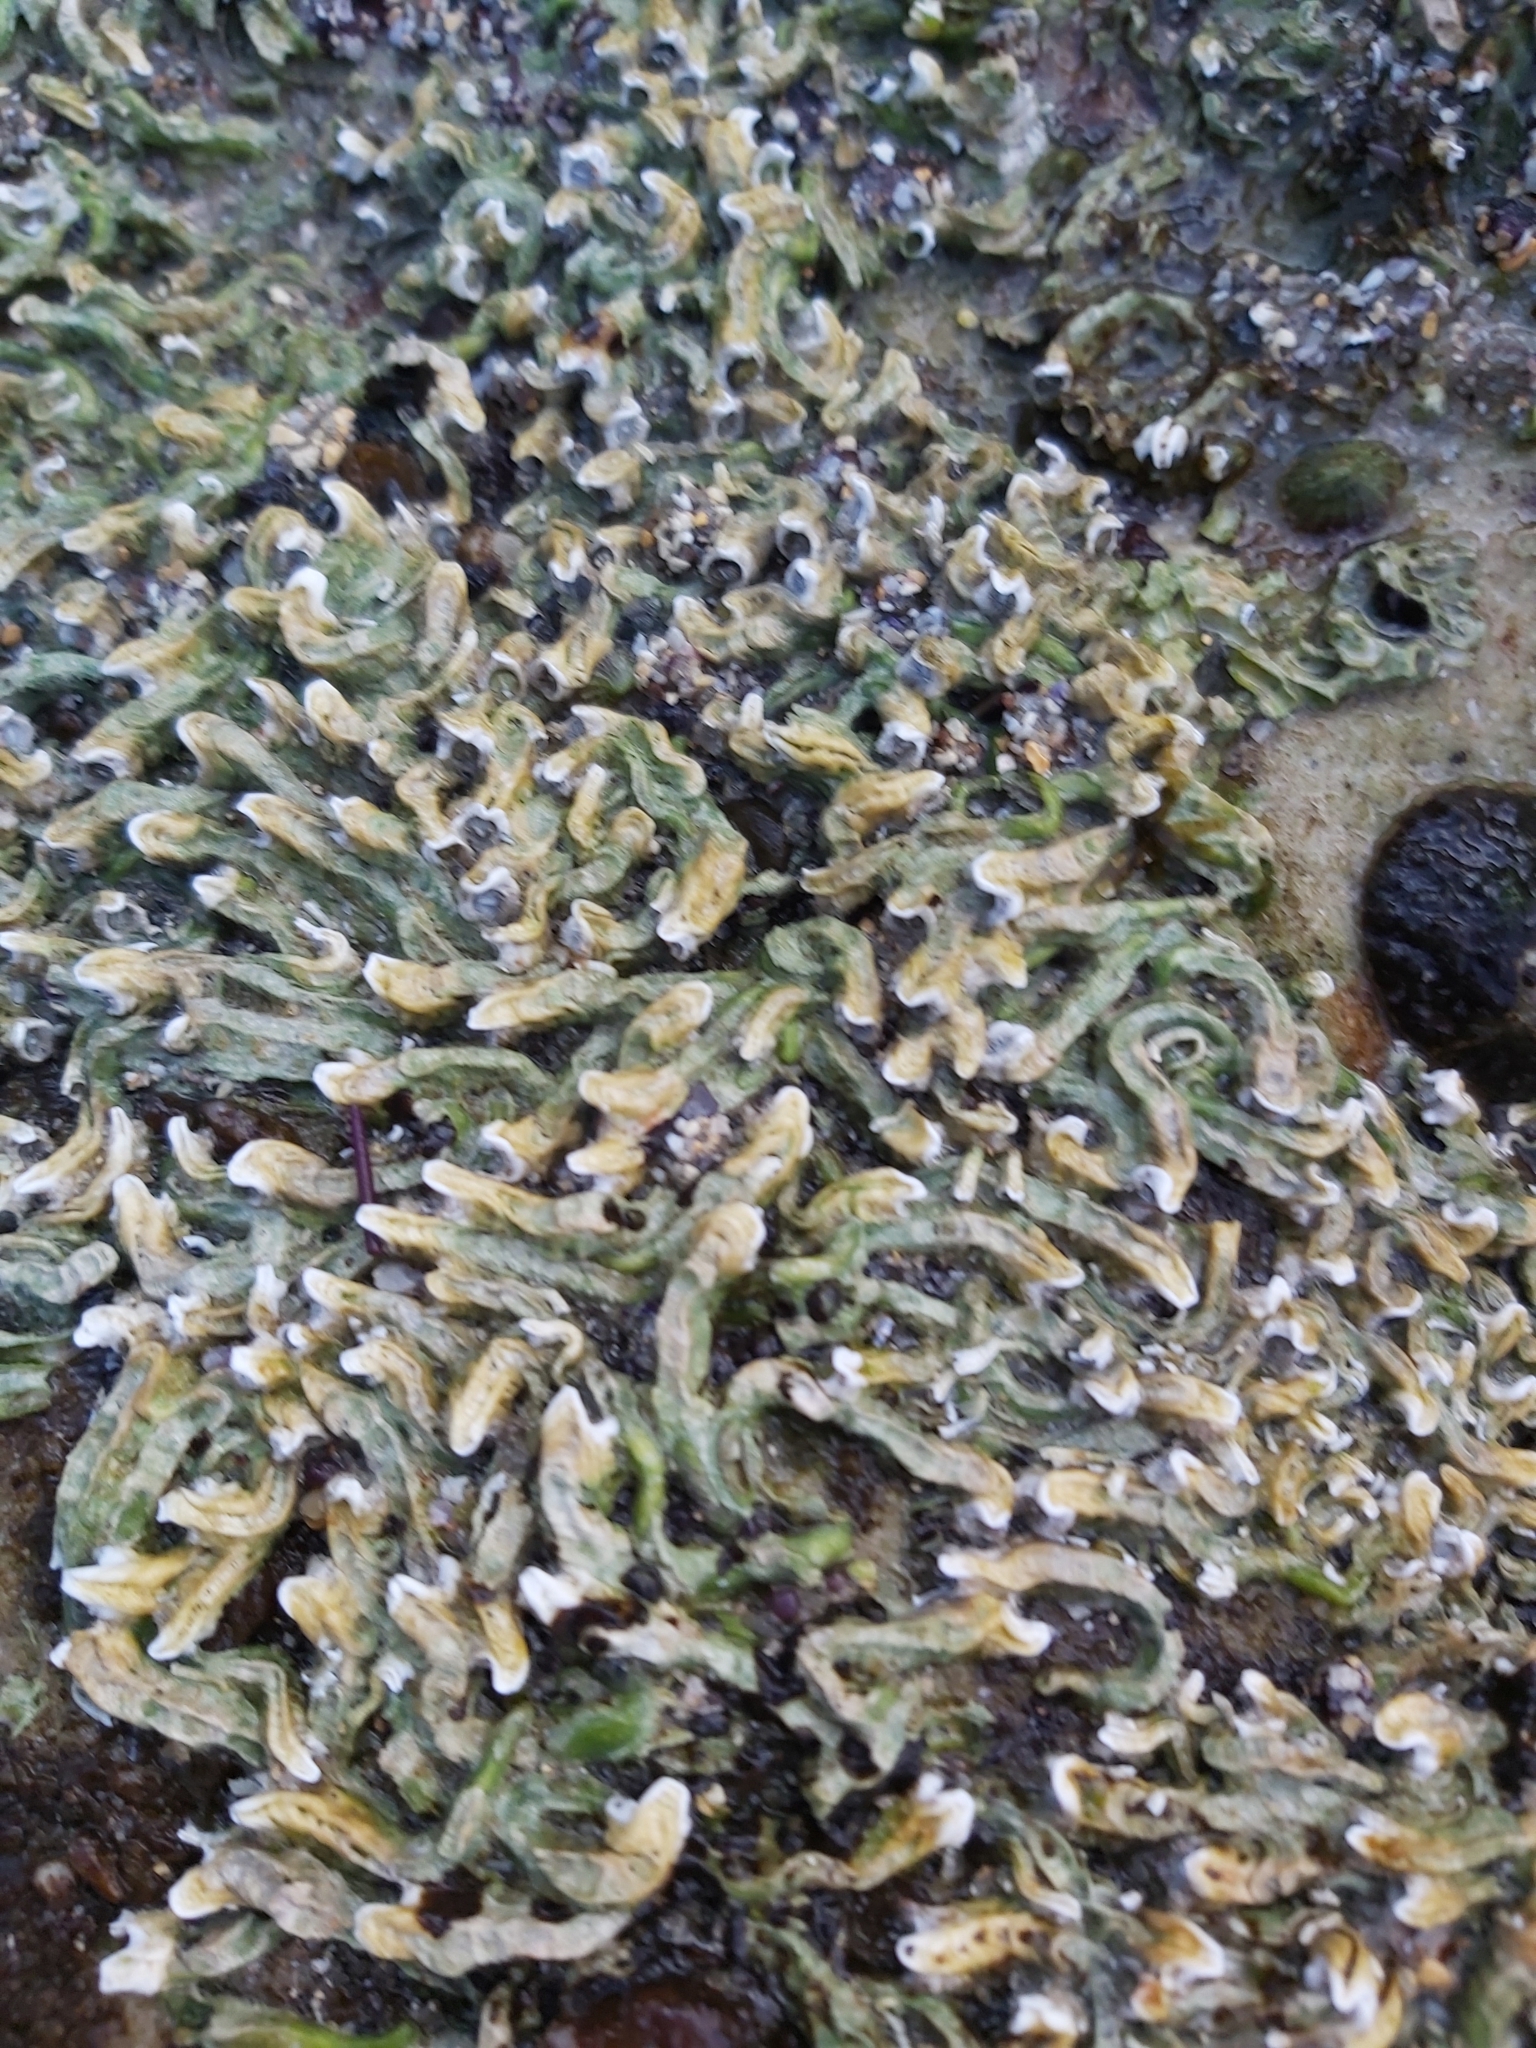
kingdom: Animalia
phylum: Annelida
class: Polychaeta
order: Sabellida
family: Serpulidae
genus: Galeolaria
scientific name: Galeolaria gemineoa
